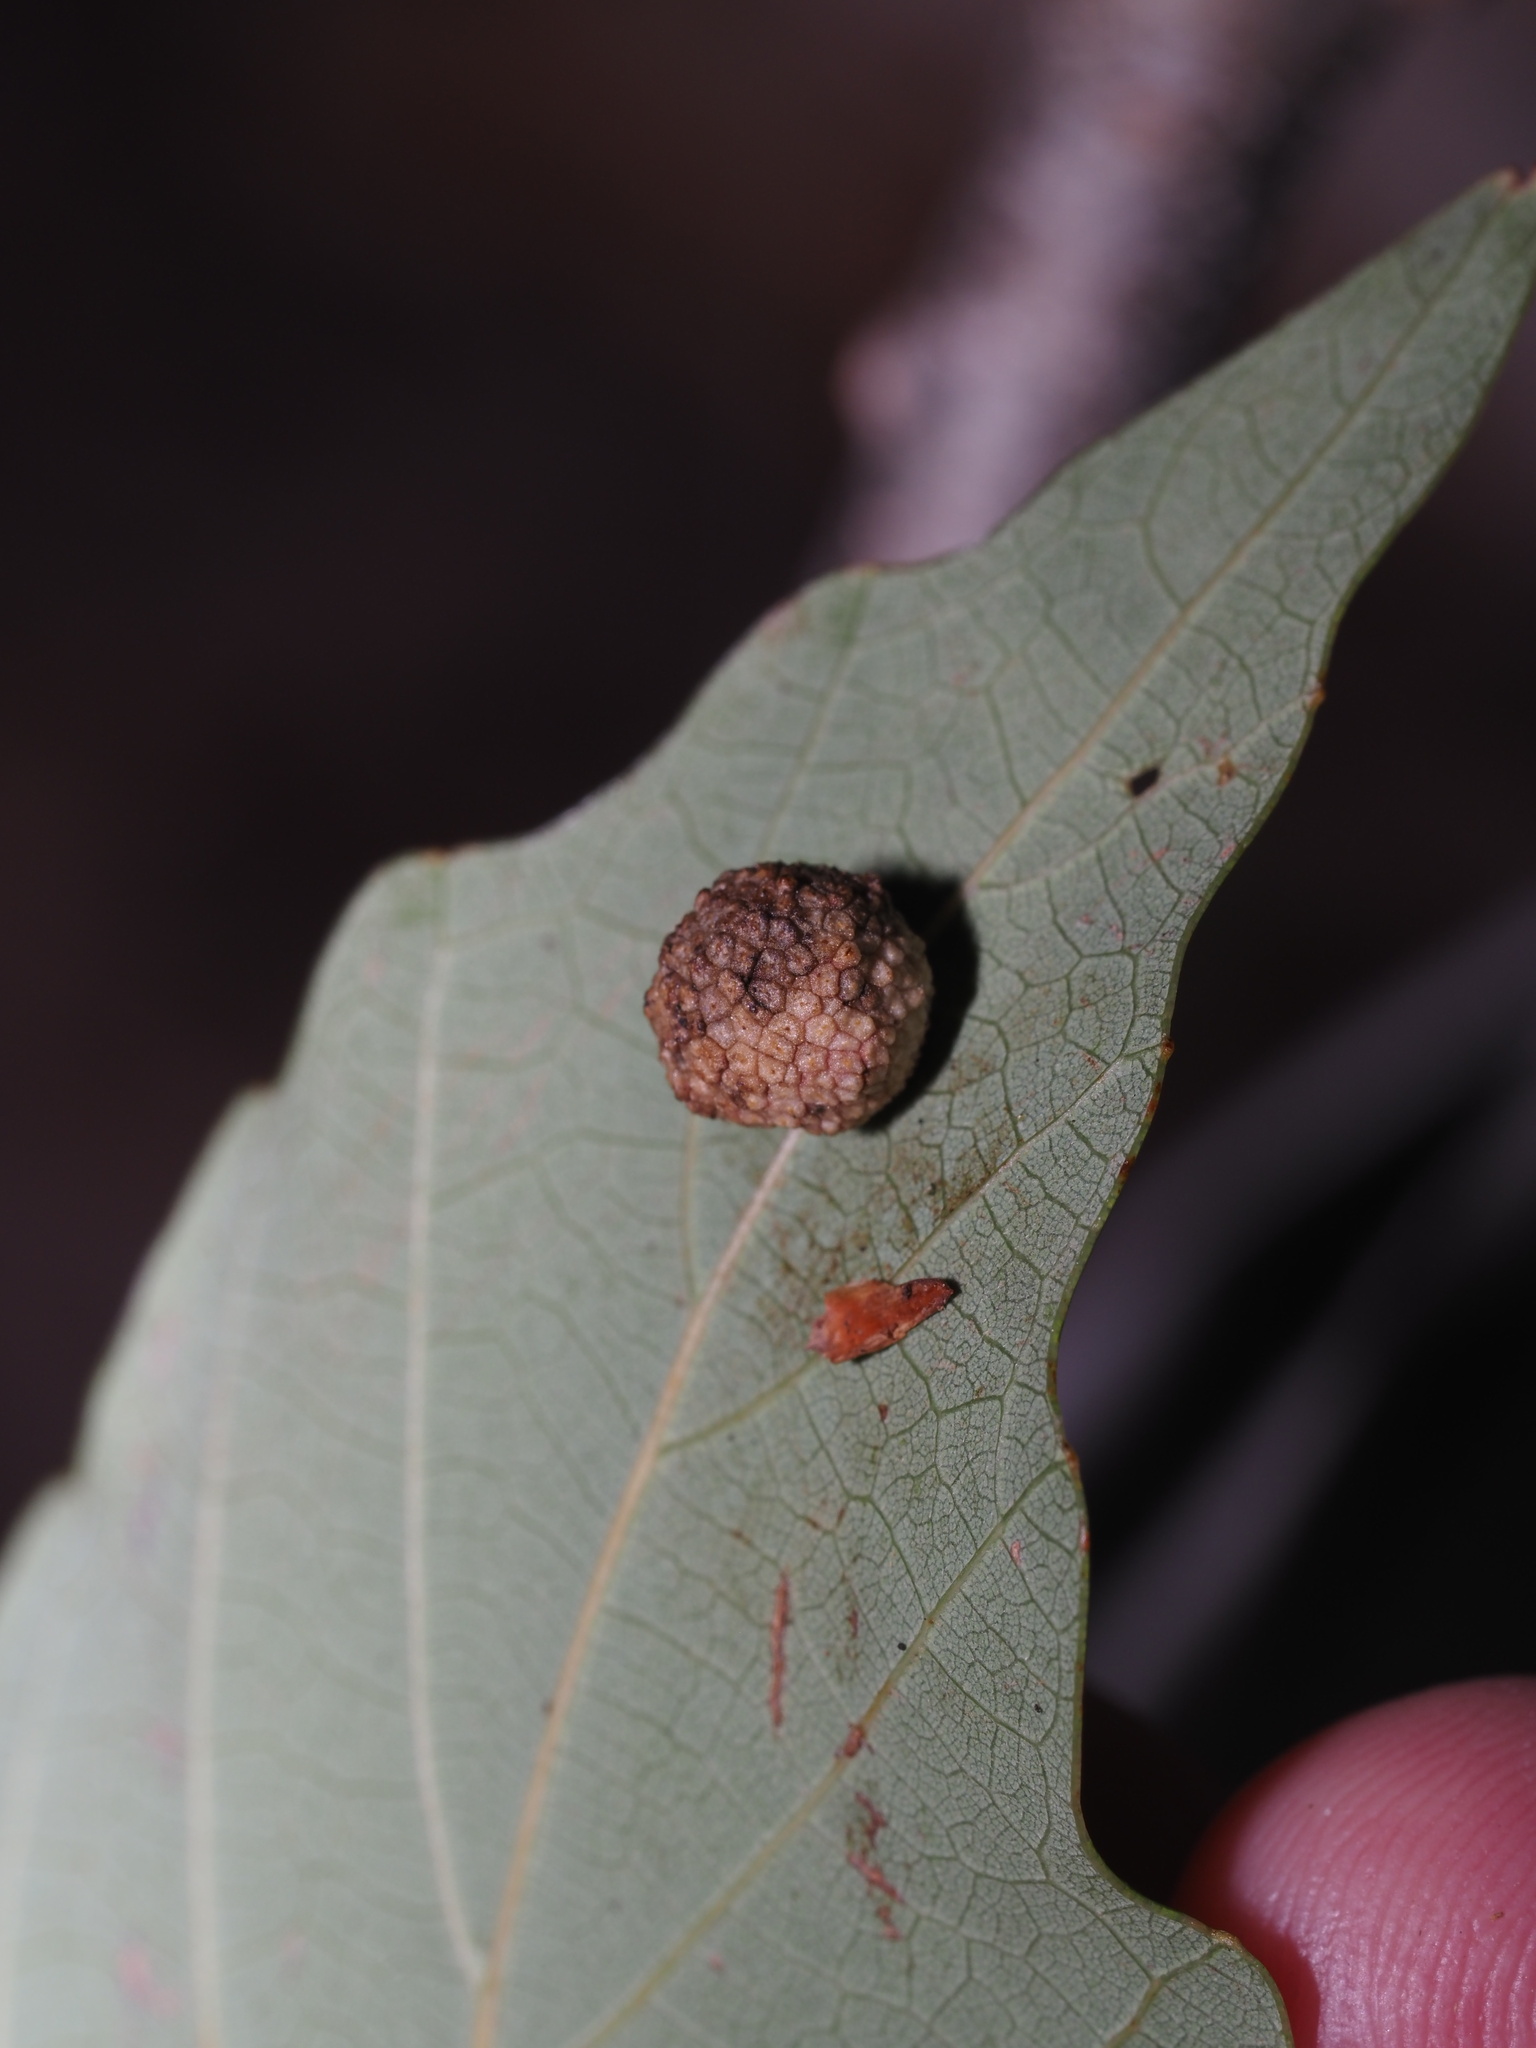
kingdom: Animalia
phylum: Arthropoda
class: Insecta
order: Hymenoptera
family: Cynipidae
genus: Acraspis
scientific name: Acraspis quercushirta
